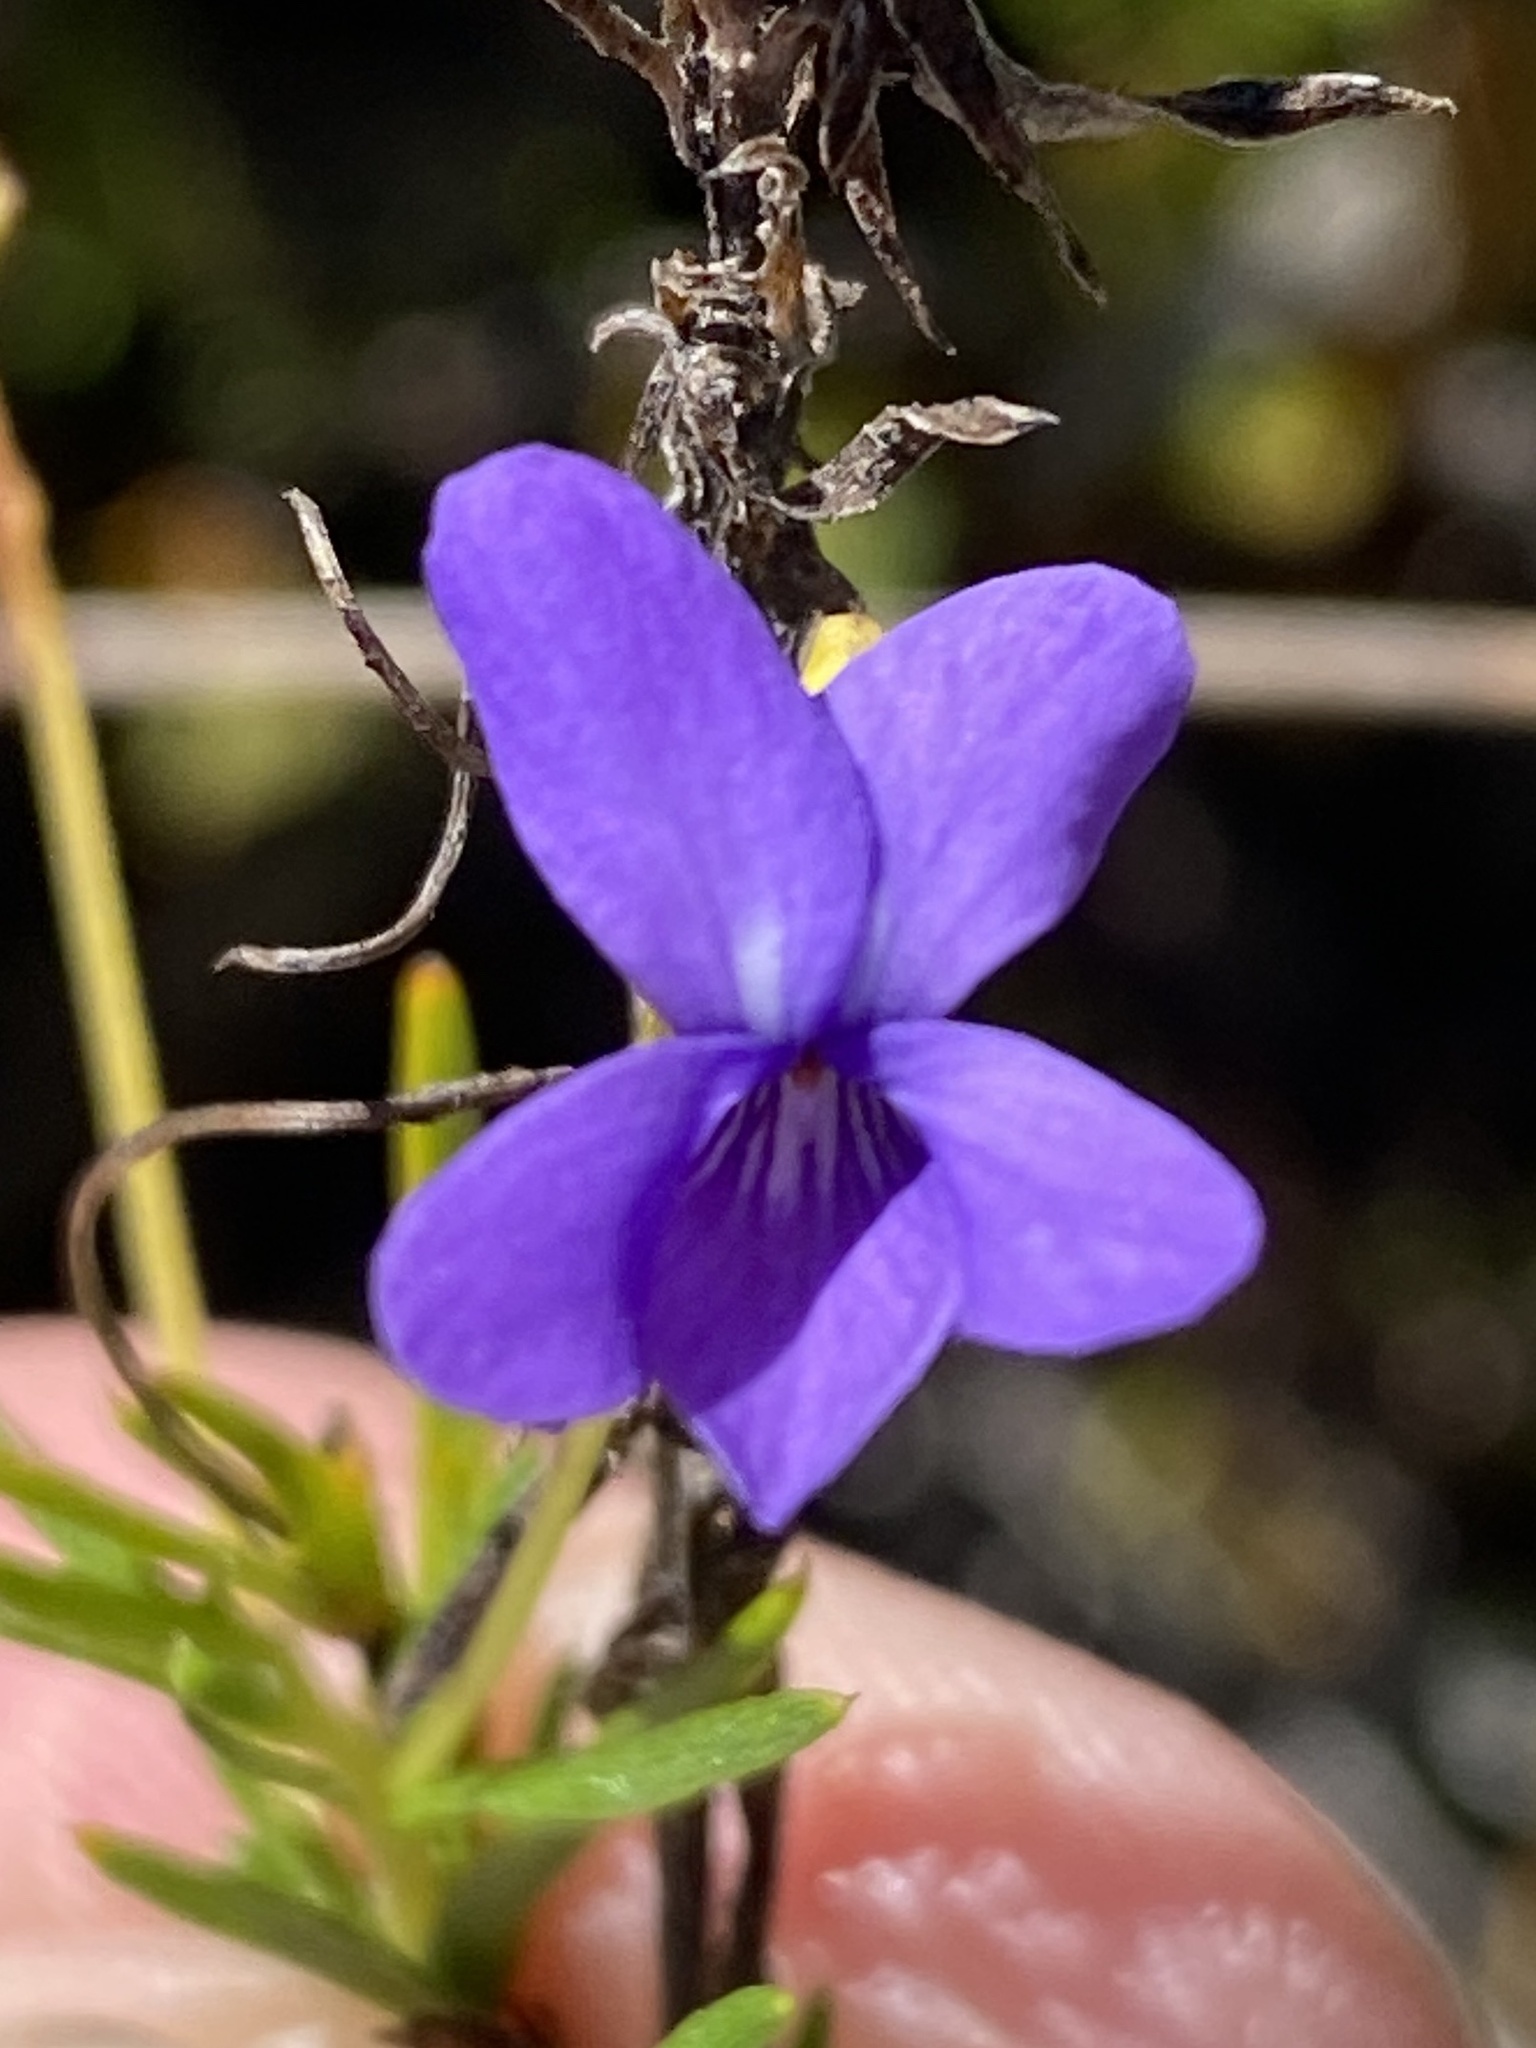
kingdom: Plantae
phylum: Tracheophyta
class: Magnoliopsida
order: Malpighiales
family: Violaceae
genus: Viola
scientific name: Viola decumbens
